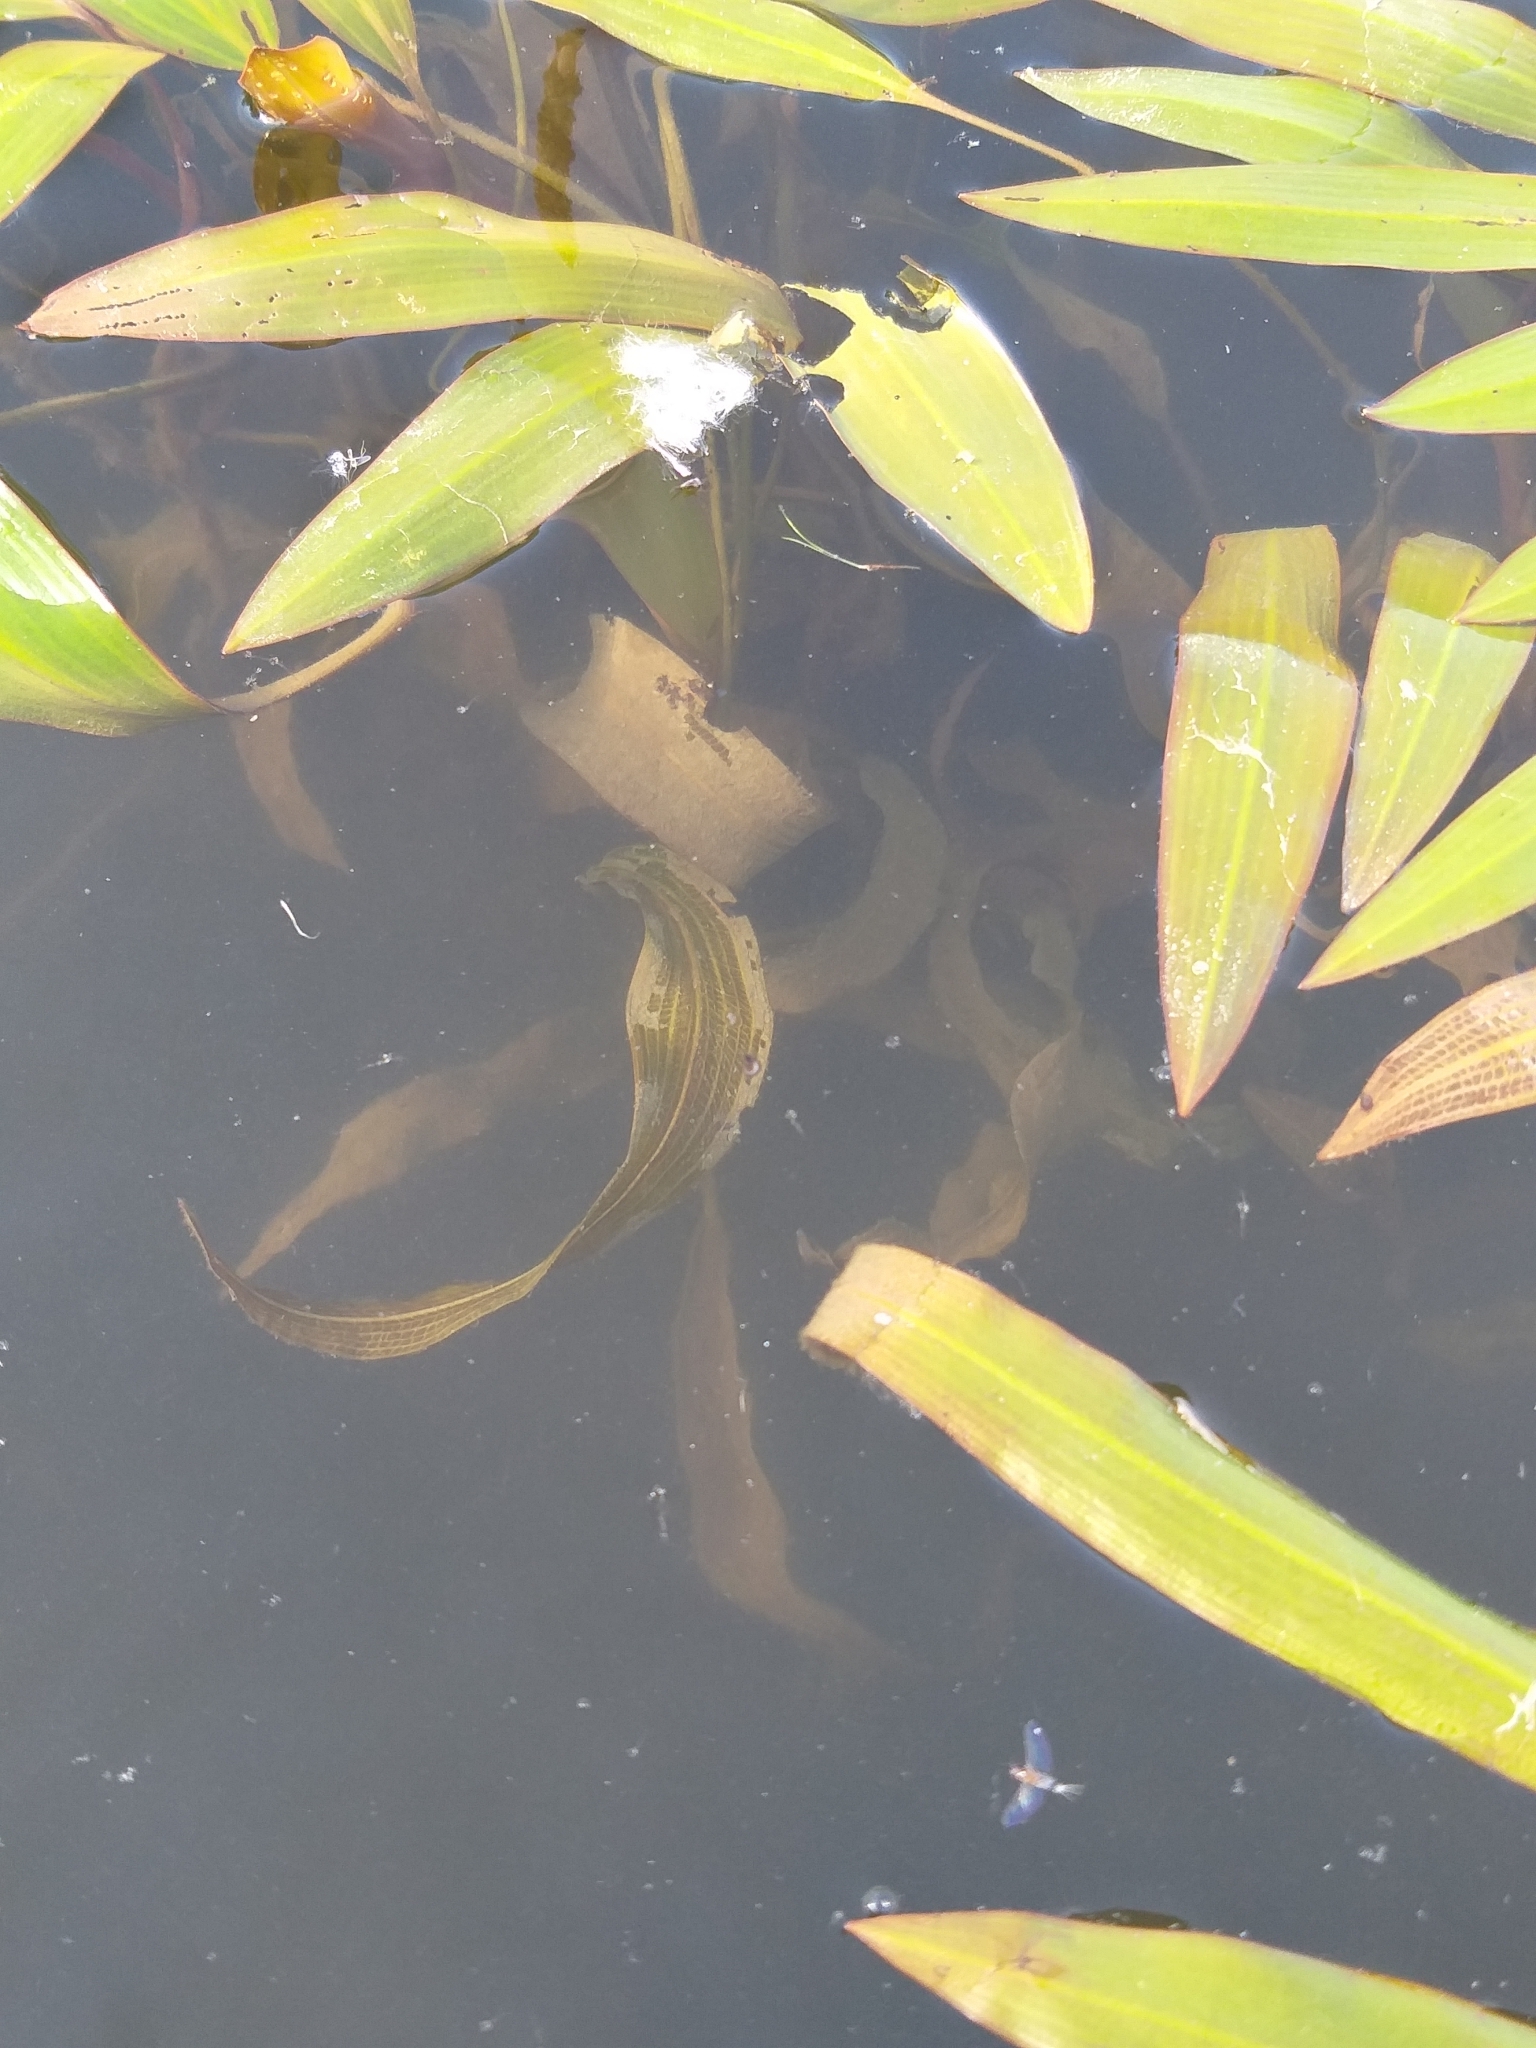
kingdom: Plantae
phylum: Tracheophyta
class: Liliopsida
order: Alismatales
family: Potamogetonaceae
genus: Potamogeton
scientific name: Potamogeton illinoensis
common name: Illinois pondweed
